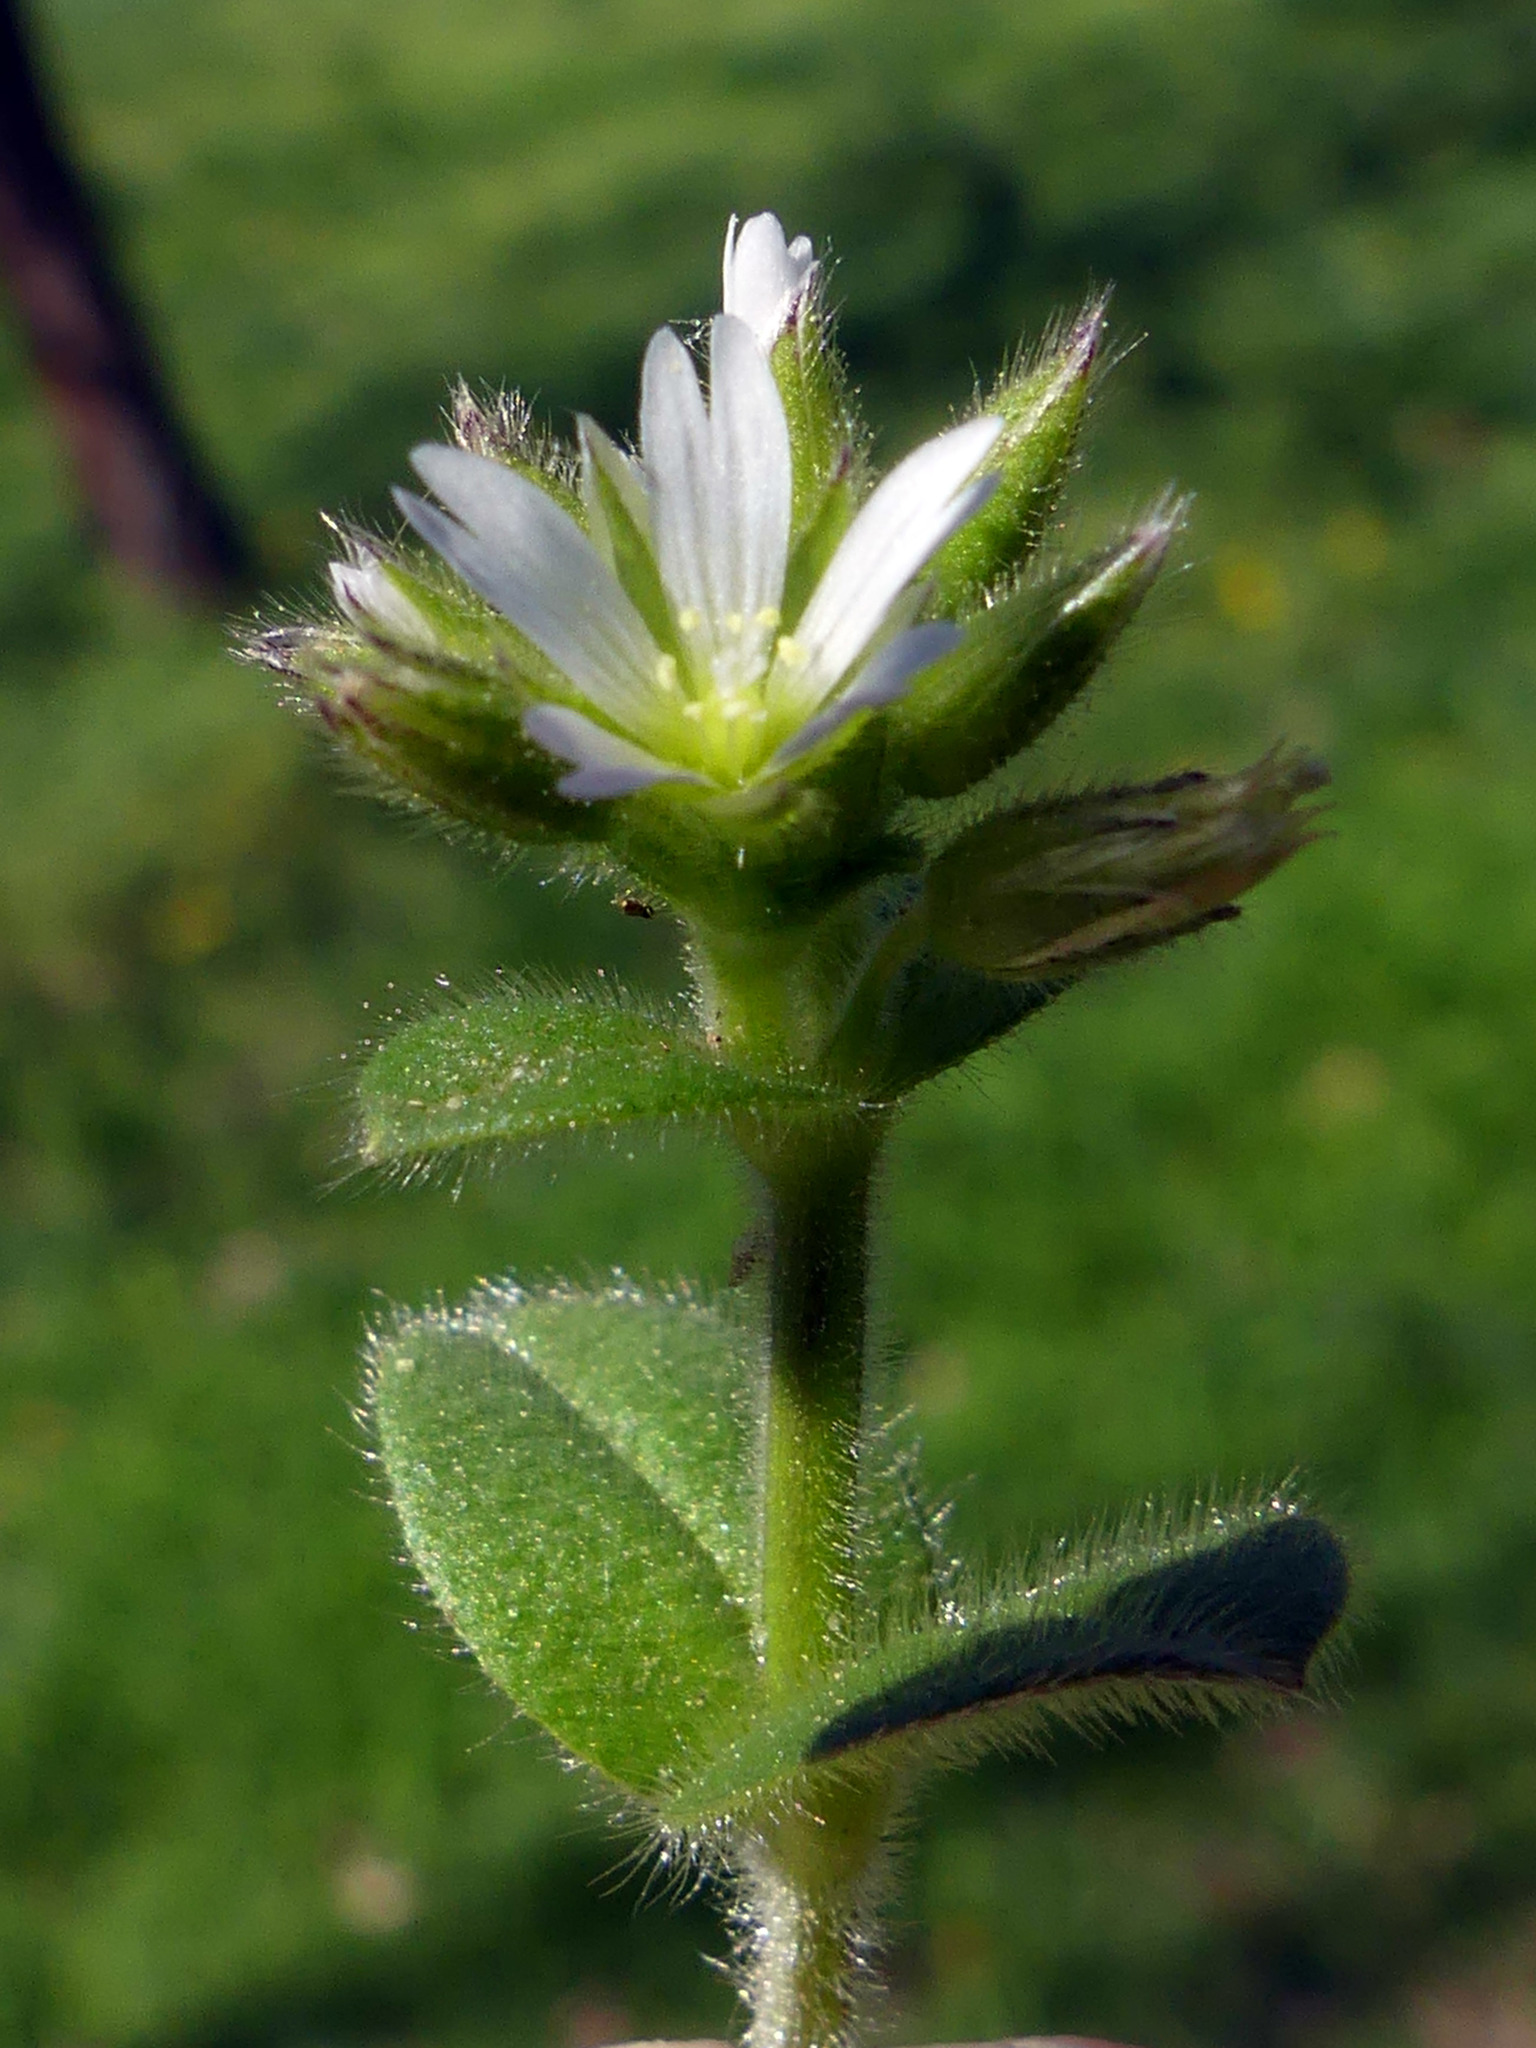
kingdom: Plantae
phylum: Tracheophyta
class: Magnoliopsida
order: Caryophyllales
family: Caryophyllaceae
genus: Cerastium
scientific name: Cerastium glomeratum
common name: Sticky chickweed
